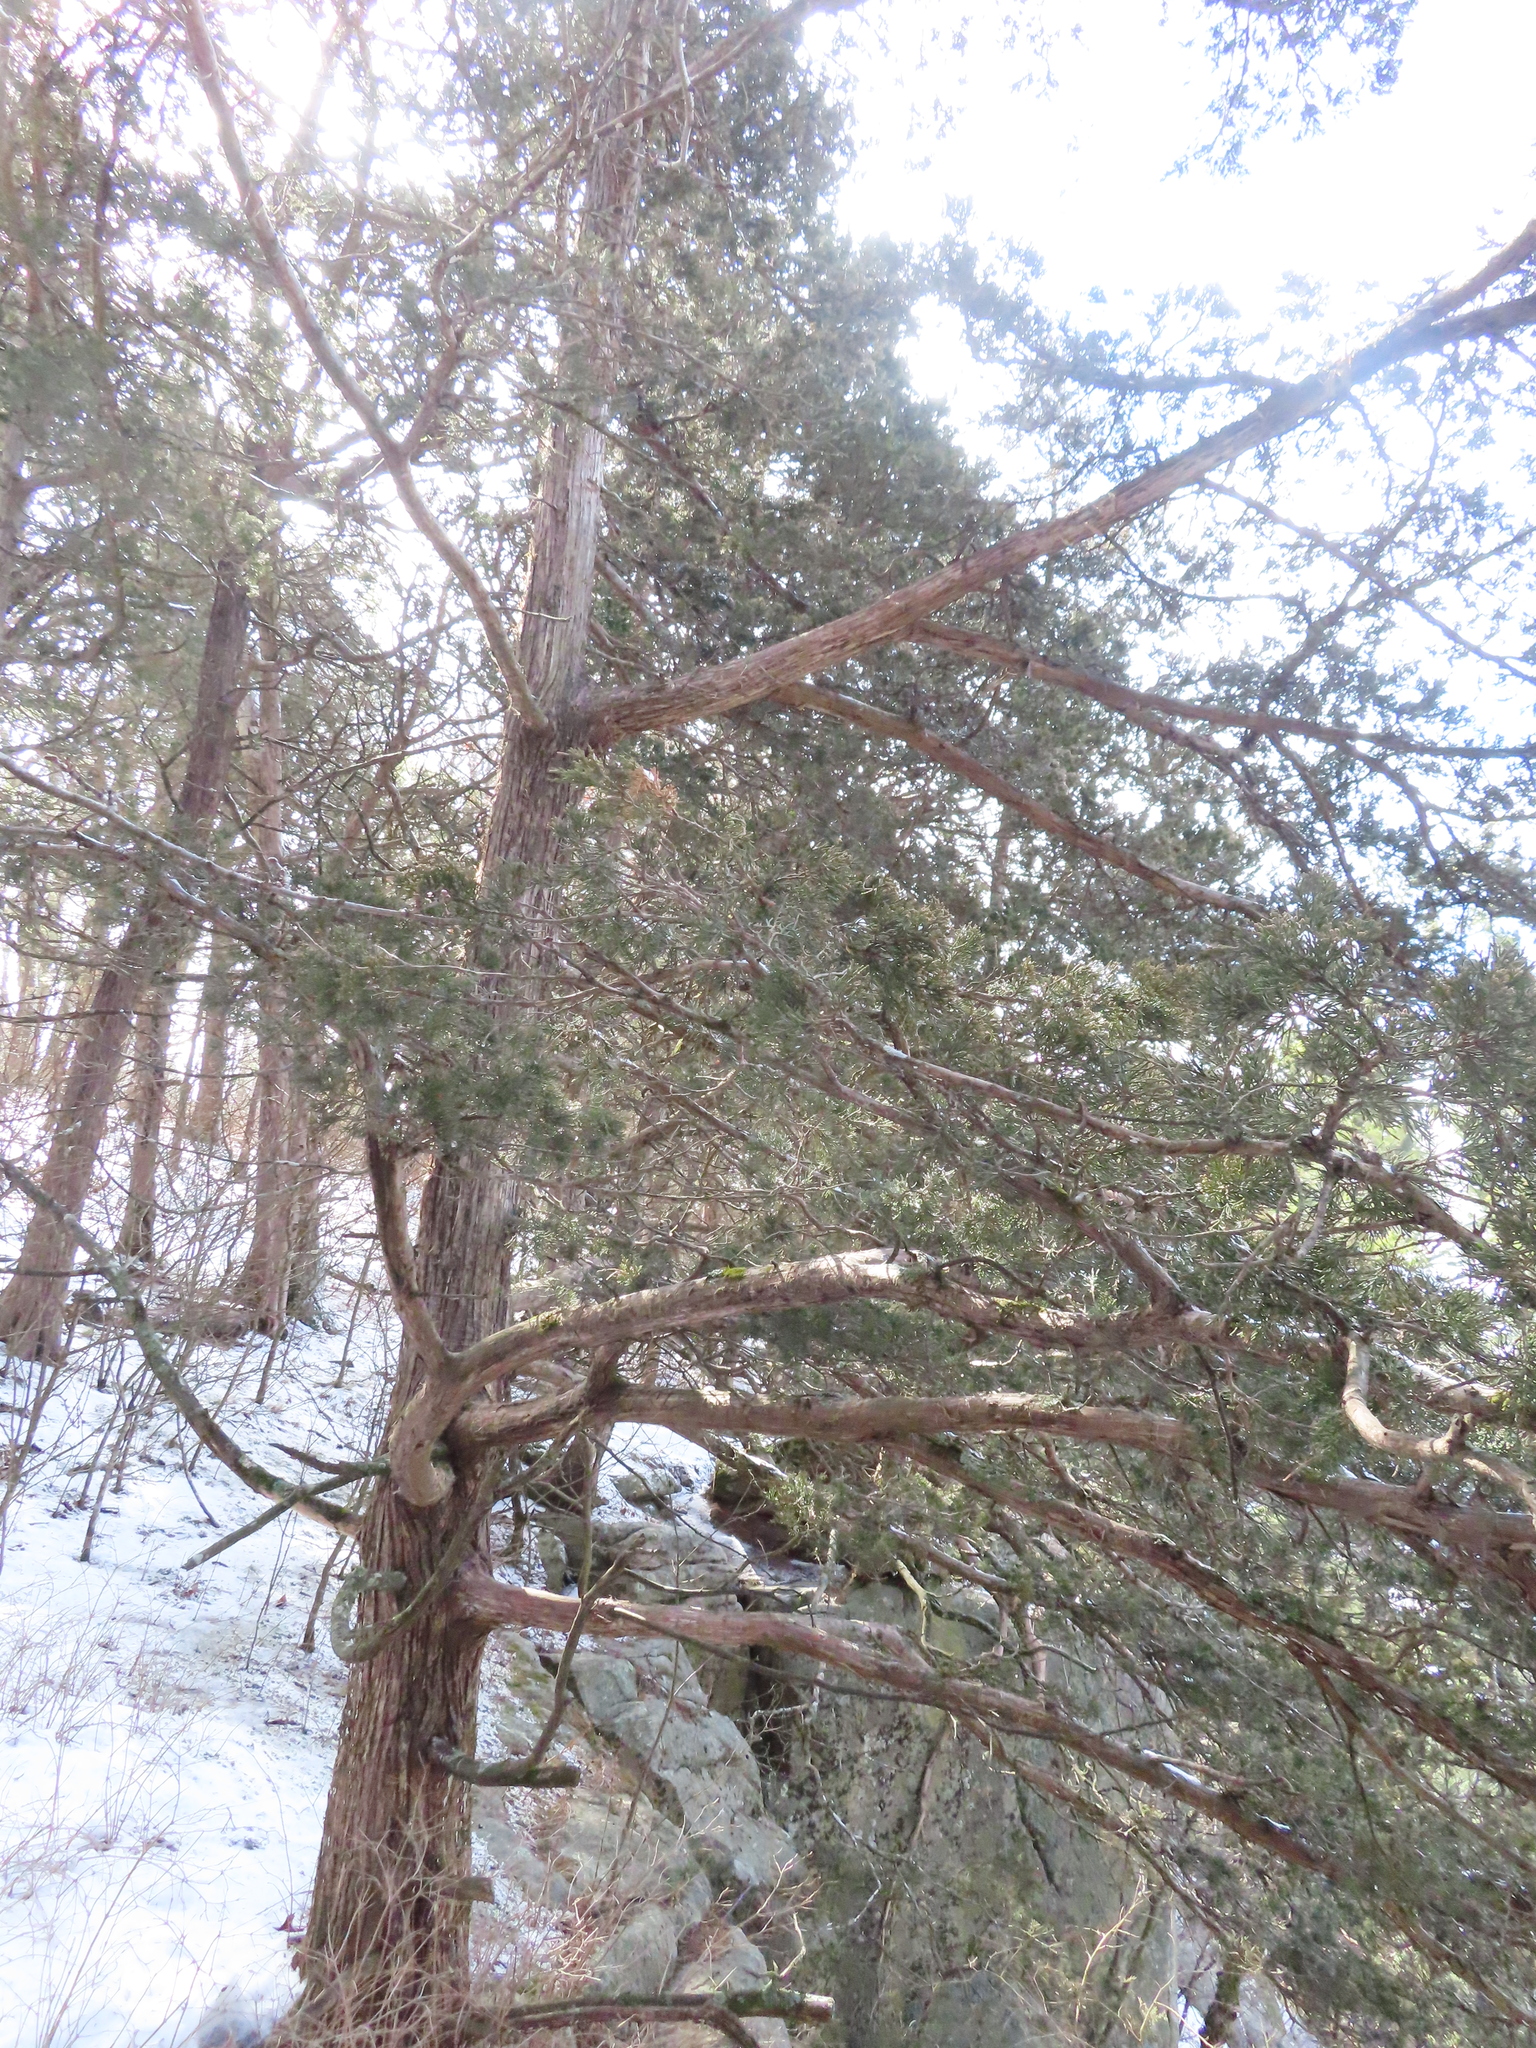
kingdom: Plantae
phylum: Tracheophyta
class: Pinopsida
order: Pinales
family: Cupressaceae
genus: Juniperus
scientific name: Juniperus virginiana
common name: Red juniper
